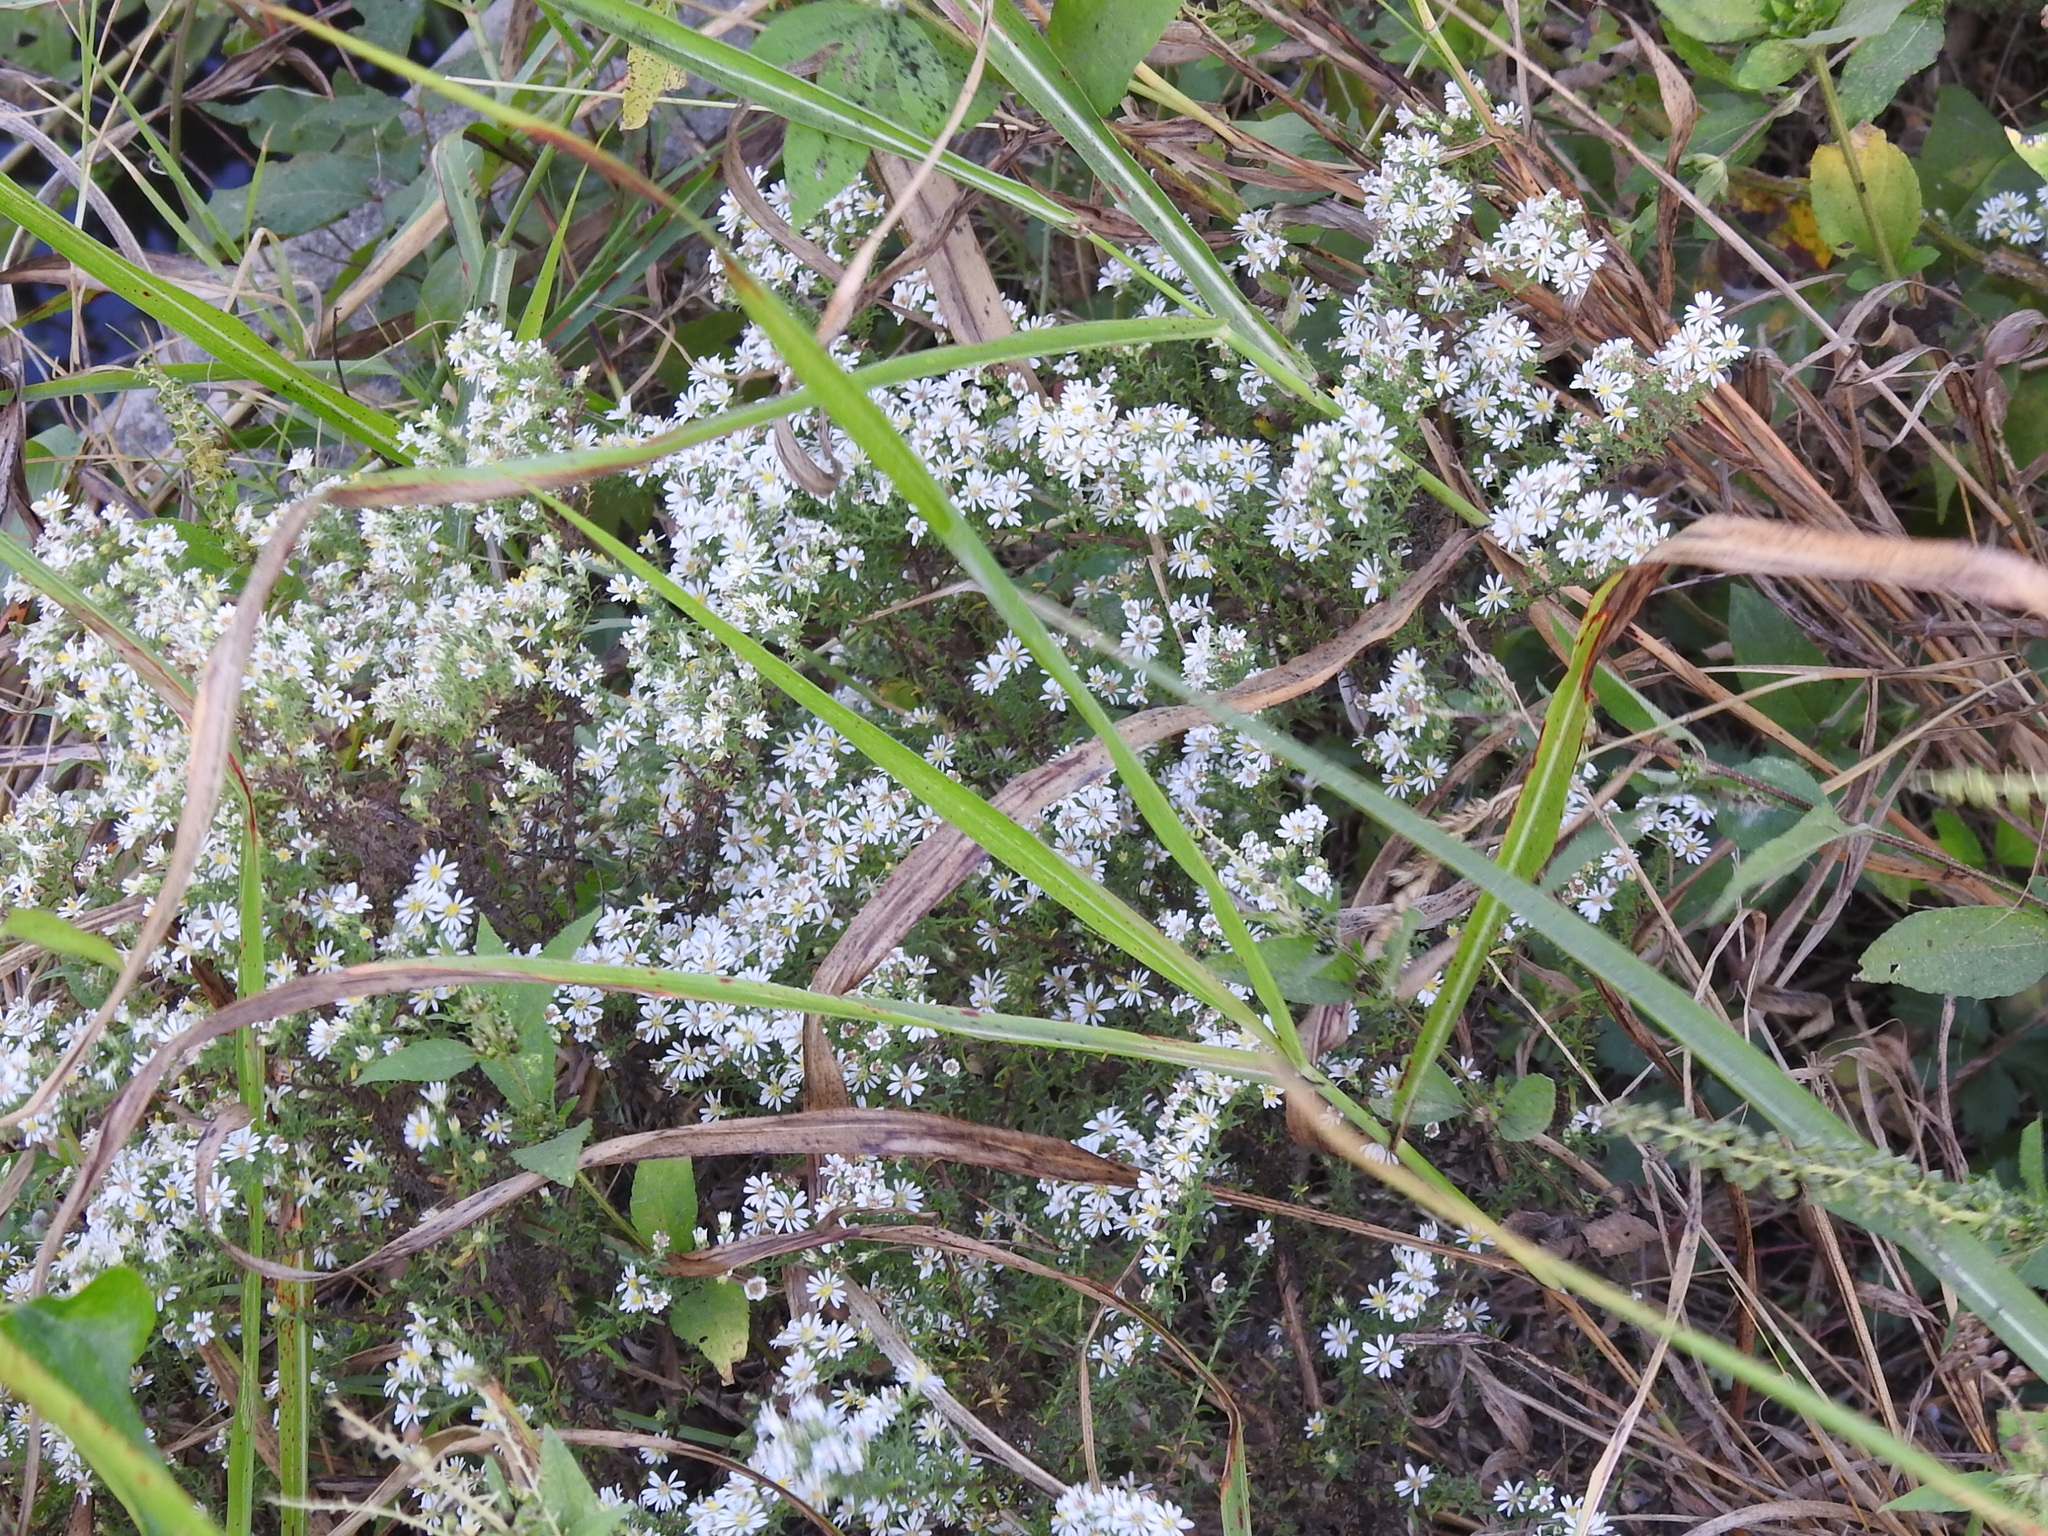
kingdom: Plantae
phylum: Tracheophyta
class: Magnoliopsida
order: Asterales
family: Asteraceae
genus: Symphyotrichum
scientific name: Symphyotrichum ericoides
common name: Heath aster
